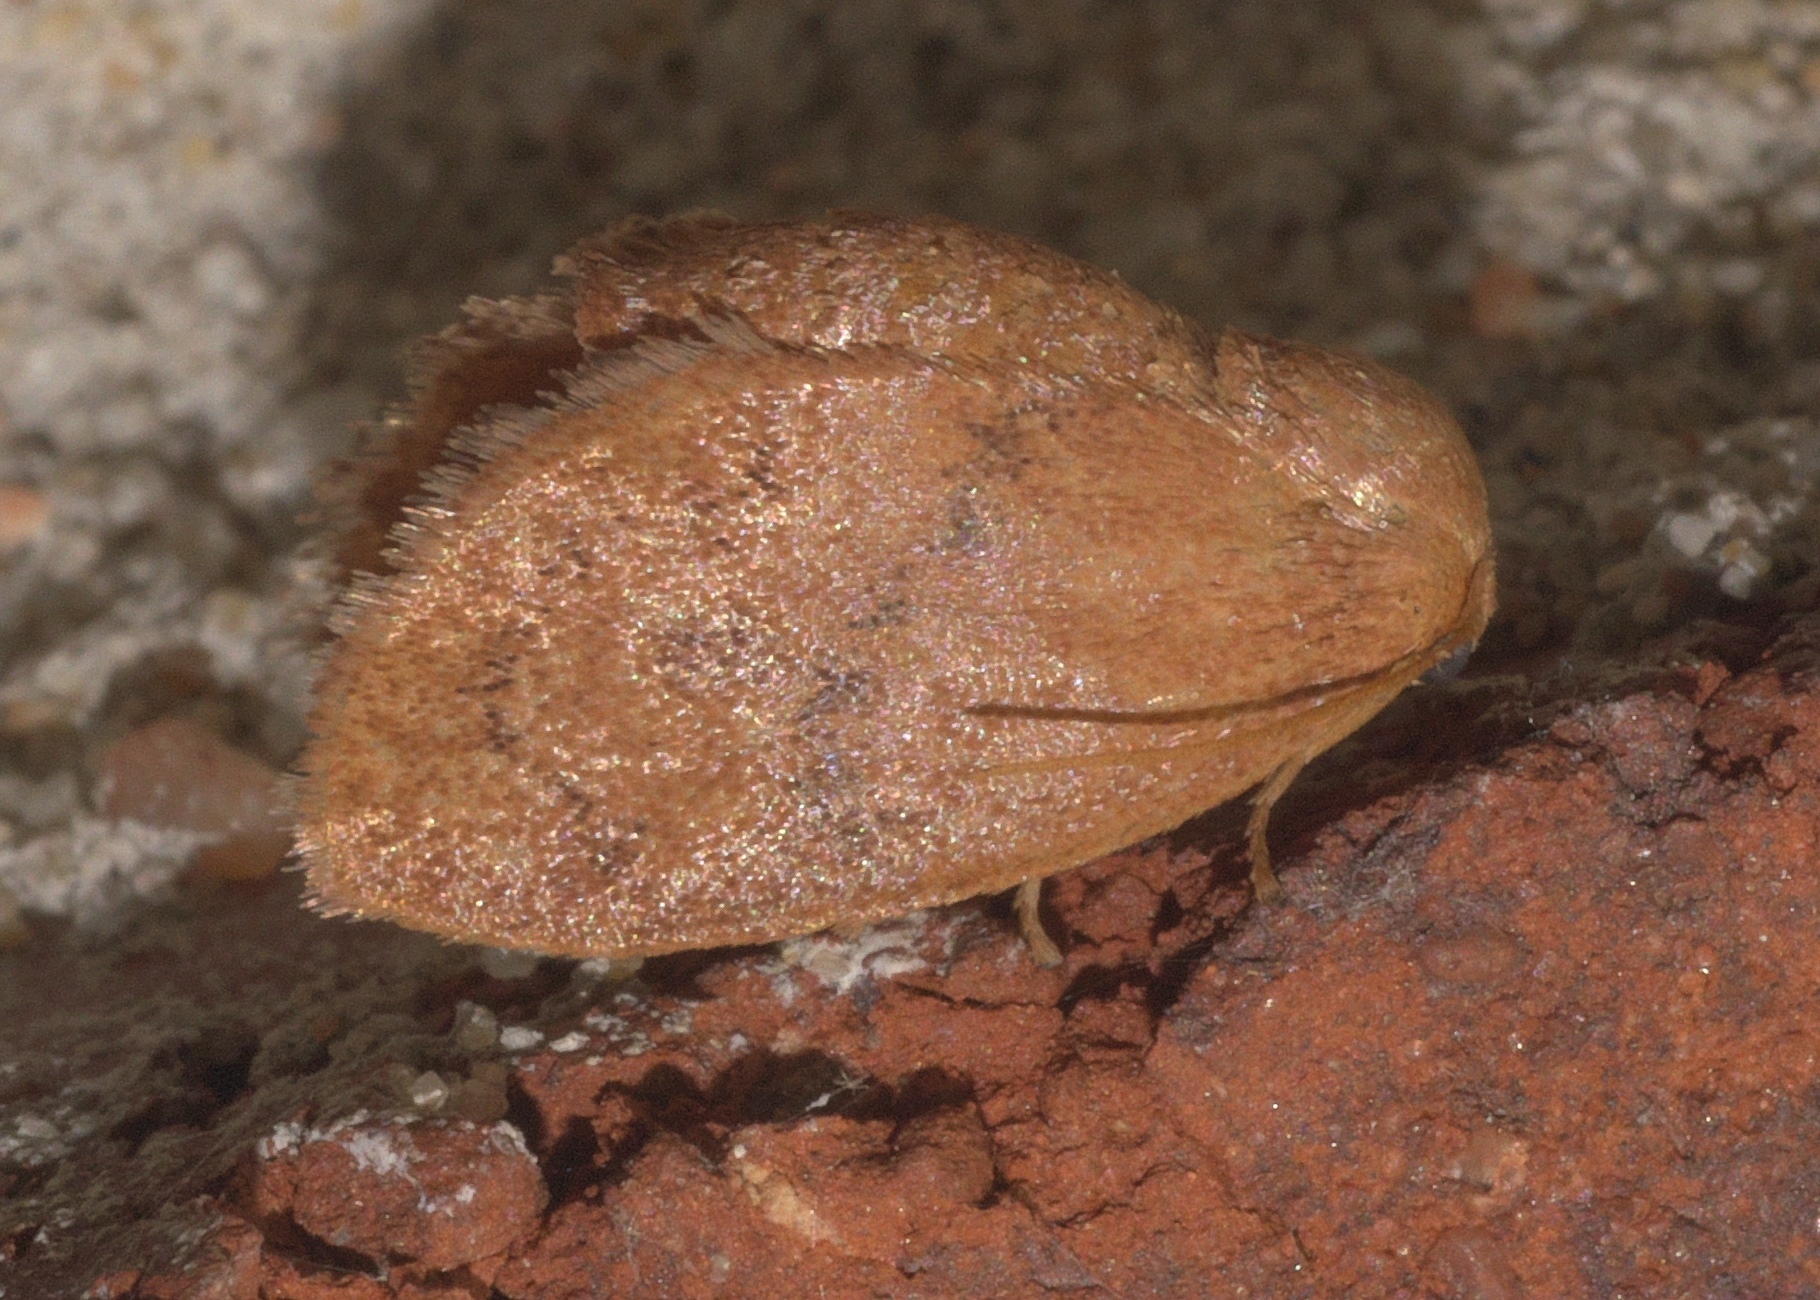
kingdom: Animalia
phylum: Arthropoda
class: Insecta
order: Lepidoptera
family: Limacodidae
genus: Heterogenea
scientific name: Heterogenea shurtleffi
